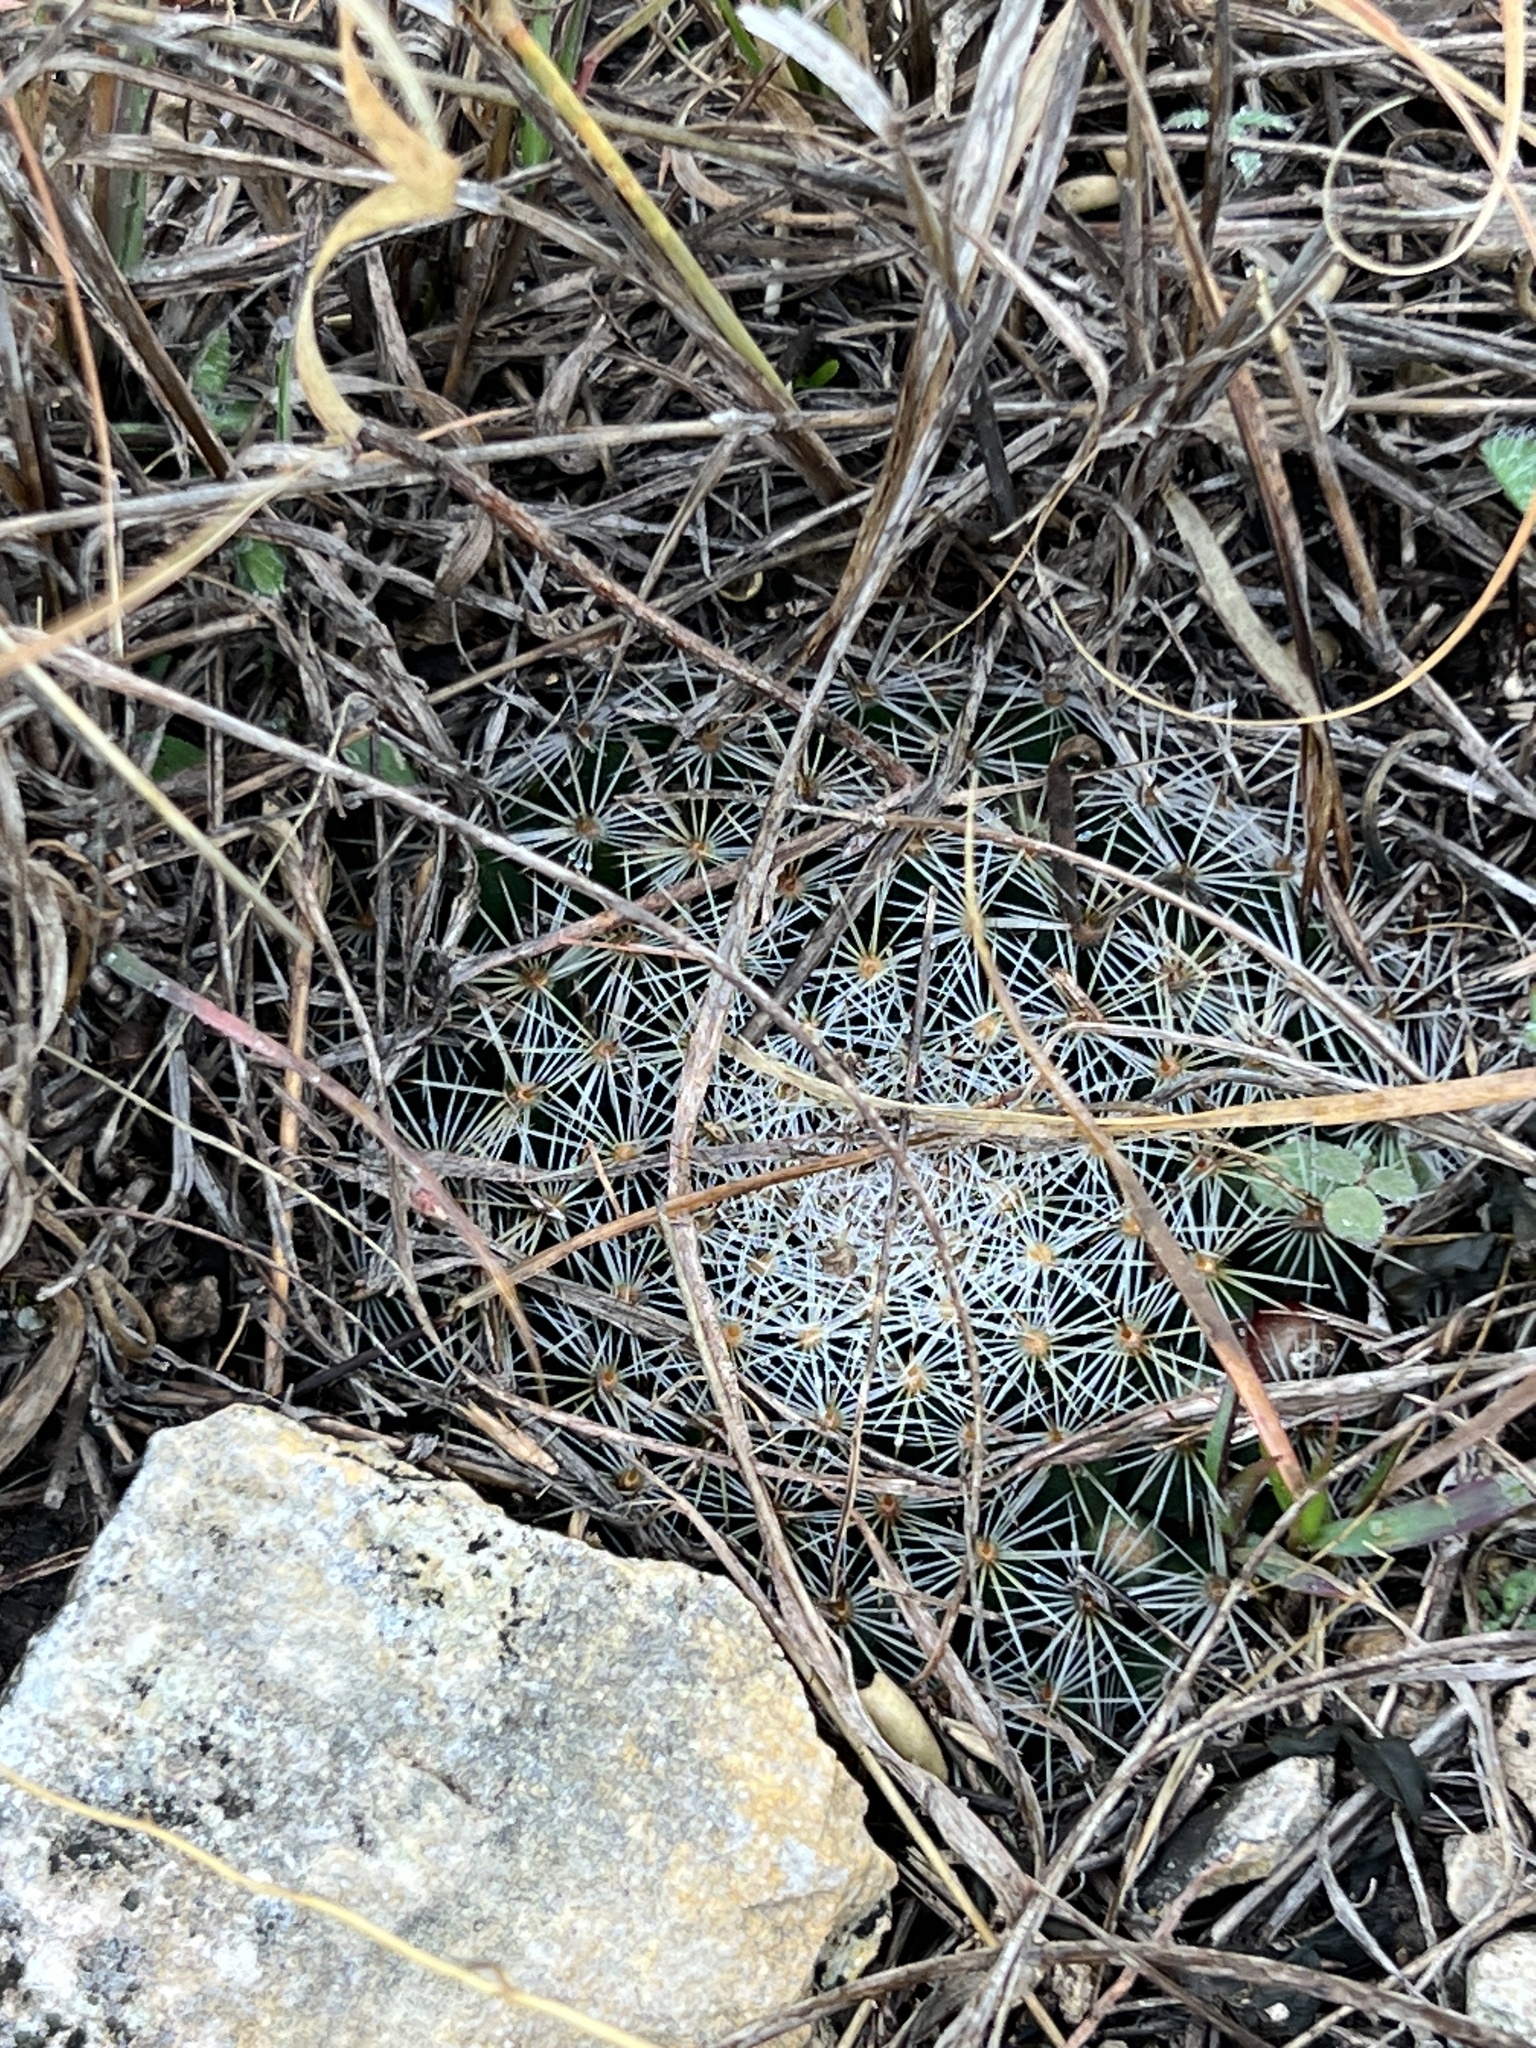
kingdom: Plantae
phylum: Tracheophyta
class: Magnoliopsida
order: Caryophyllales
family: Cactaceae
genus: Mammillaria
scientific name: Mammillaria heyderi
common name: Little nipple cactus
